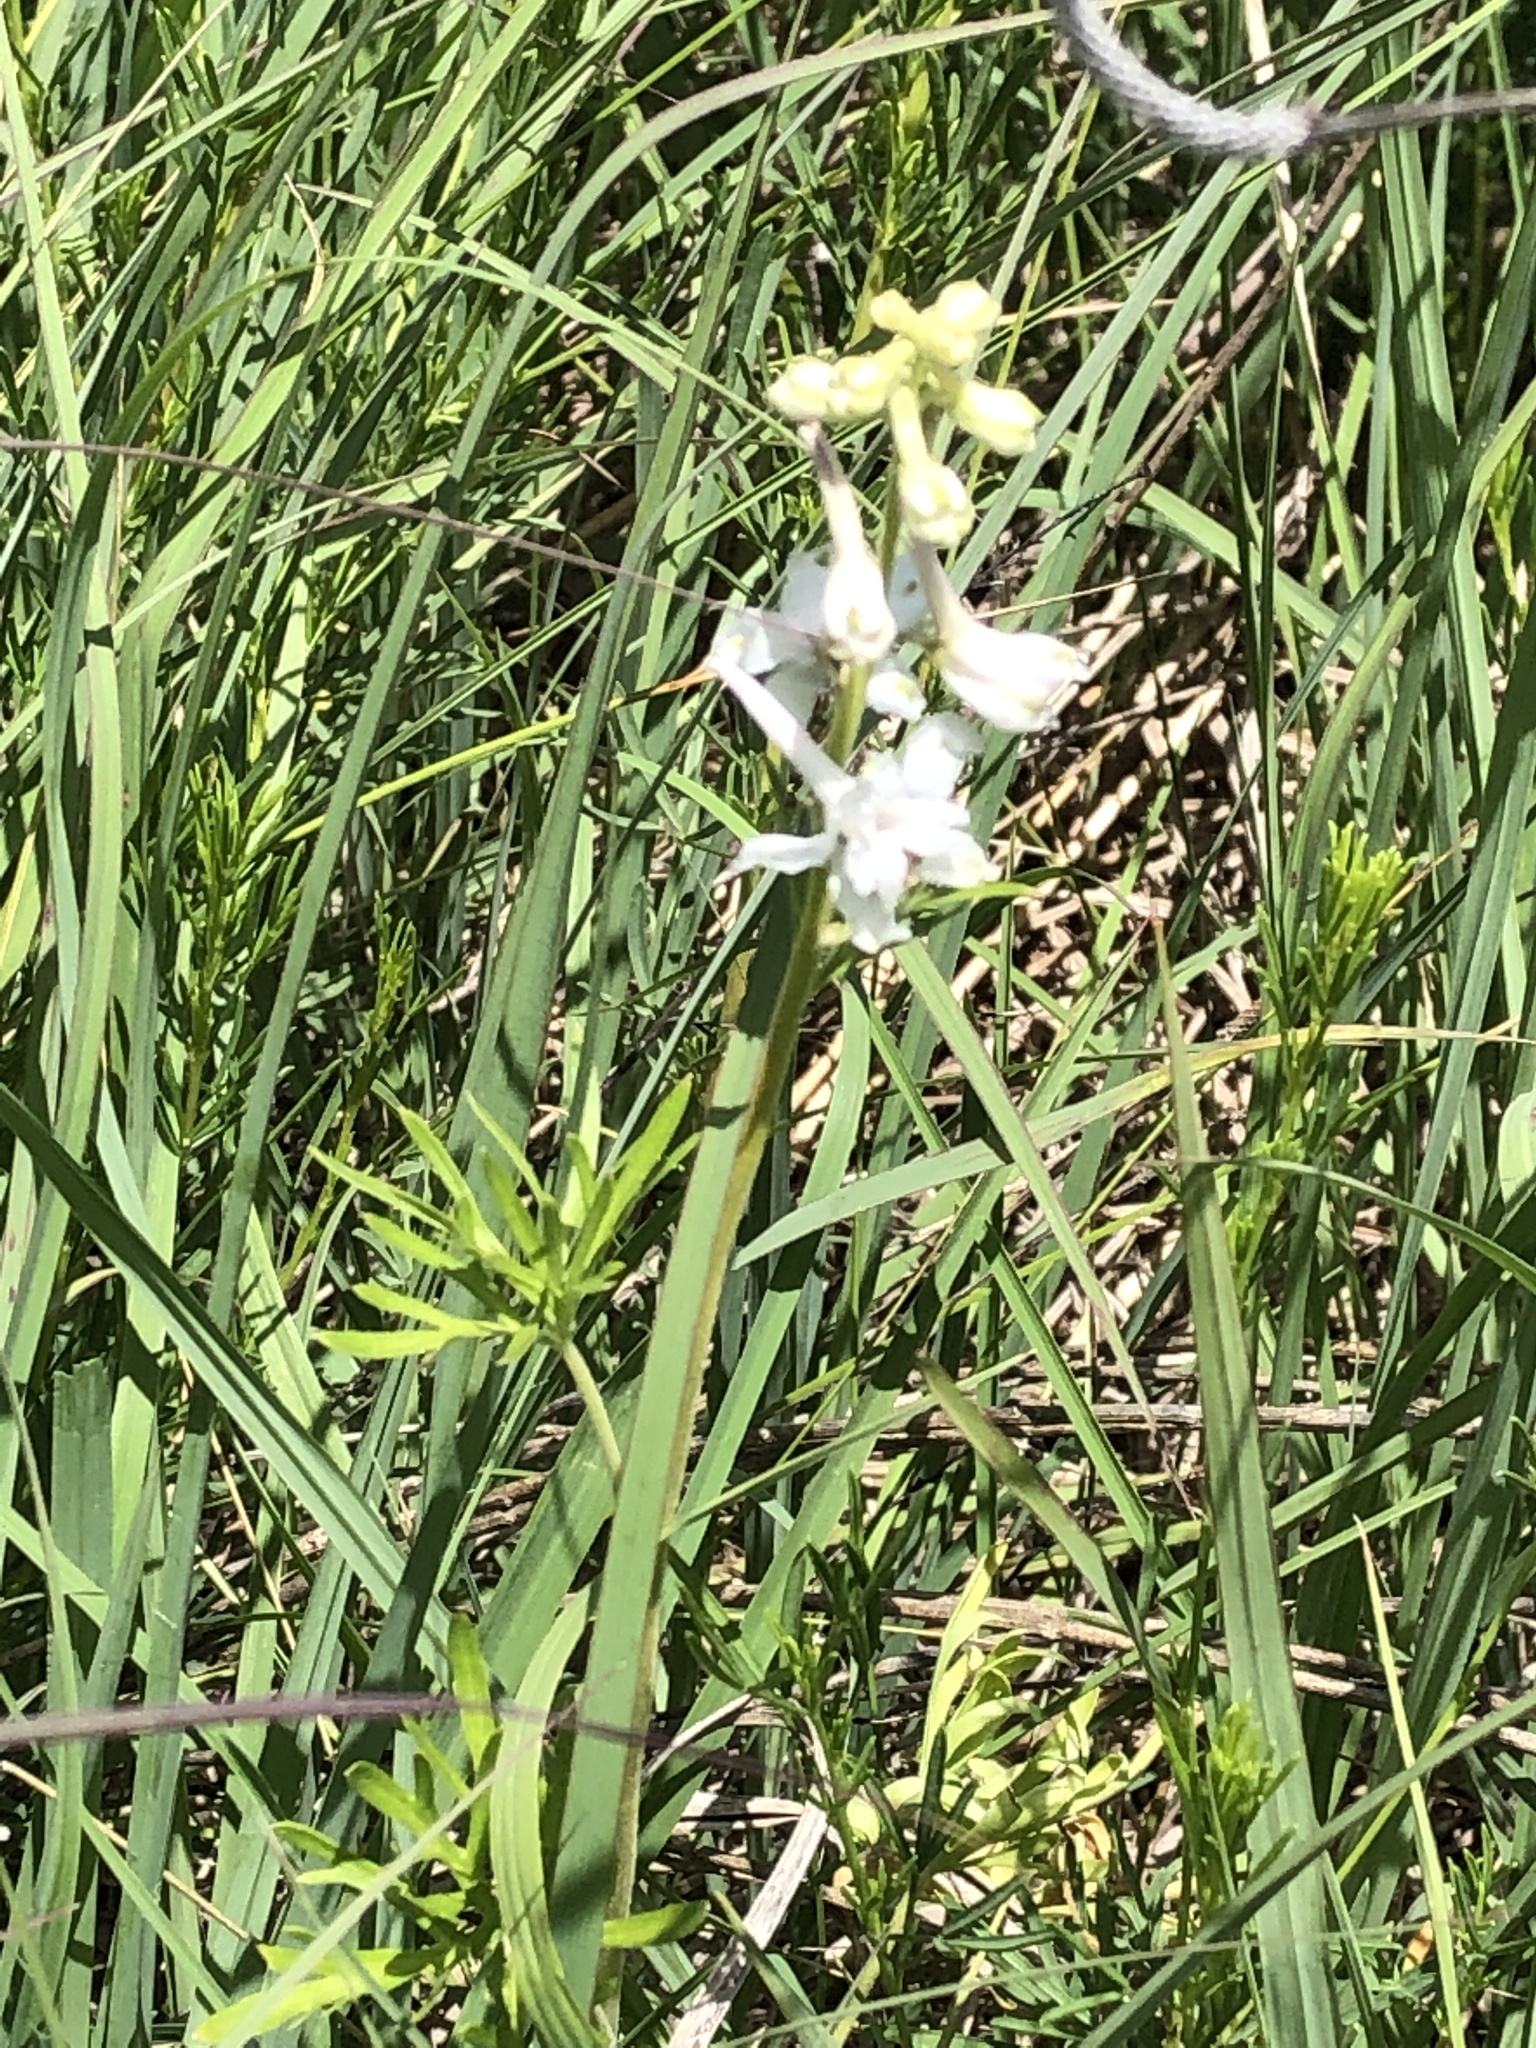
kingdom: Plantae
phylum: Tracheophyta
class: Magnoliopsida
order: Ranunculales
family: Ranunculaceae
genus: Delphinium
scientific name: Delphinium carolinianum
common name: Carolina larkspur
